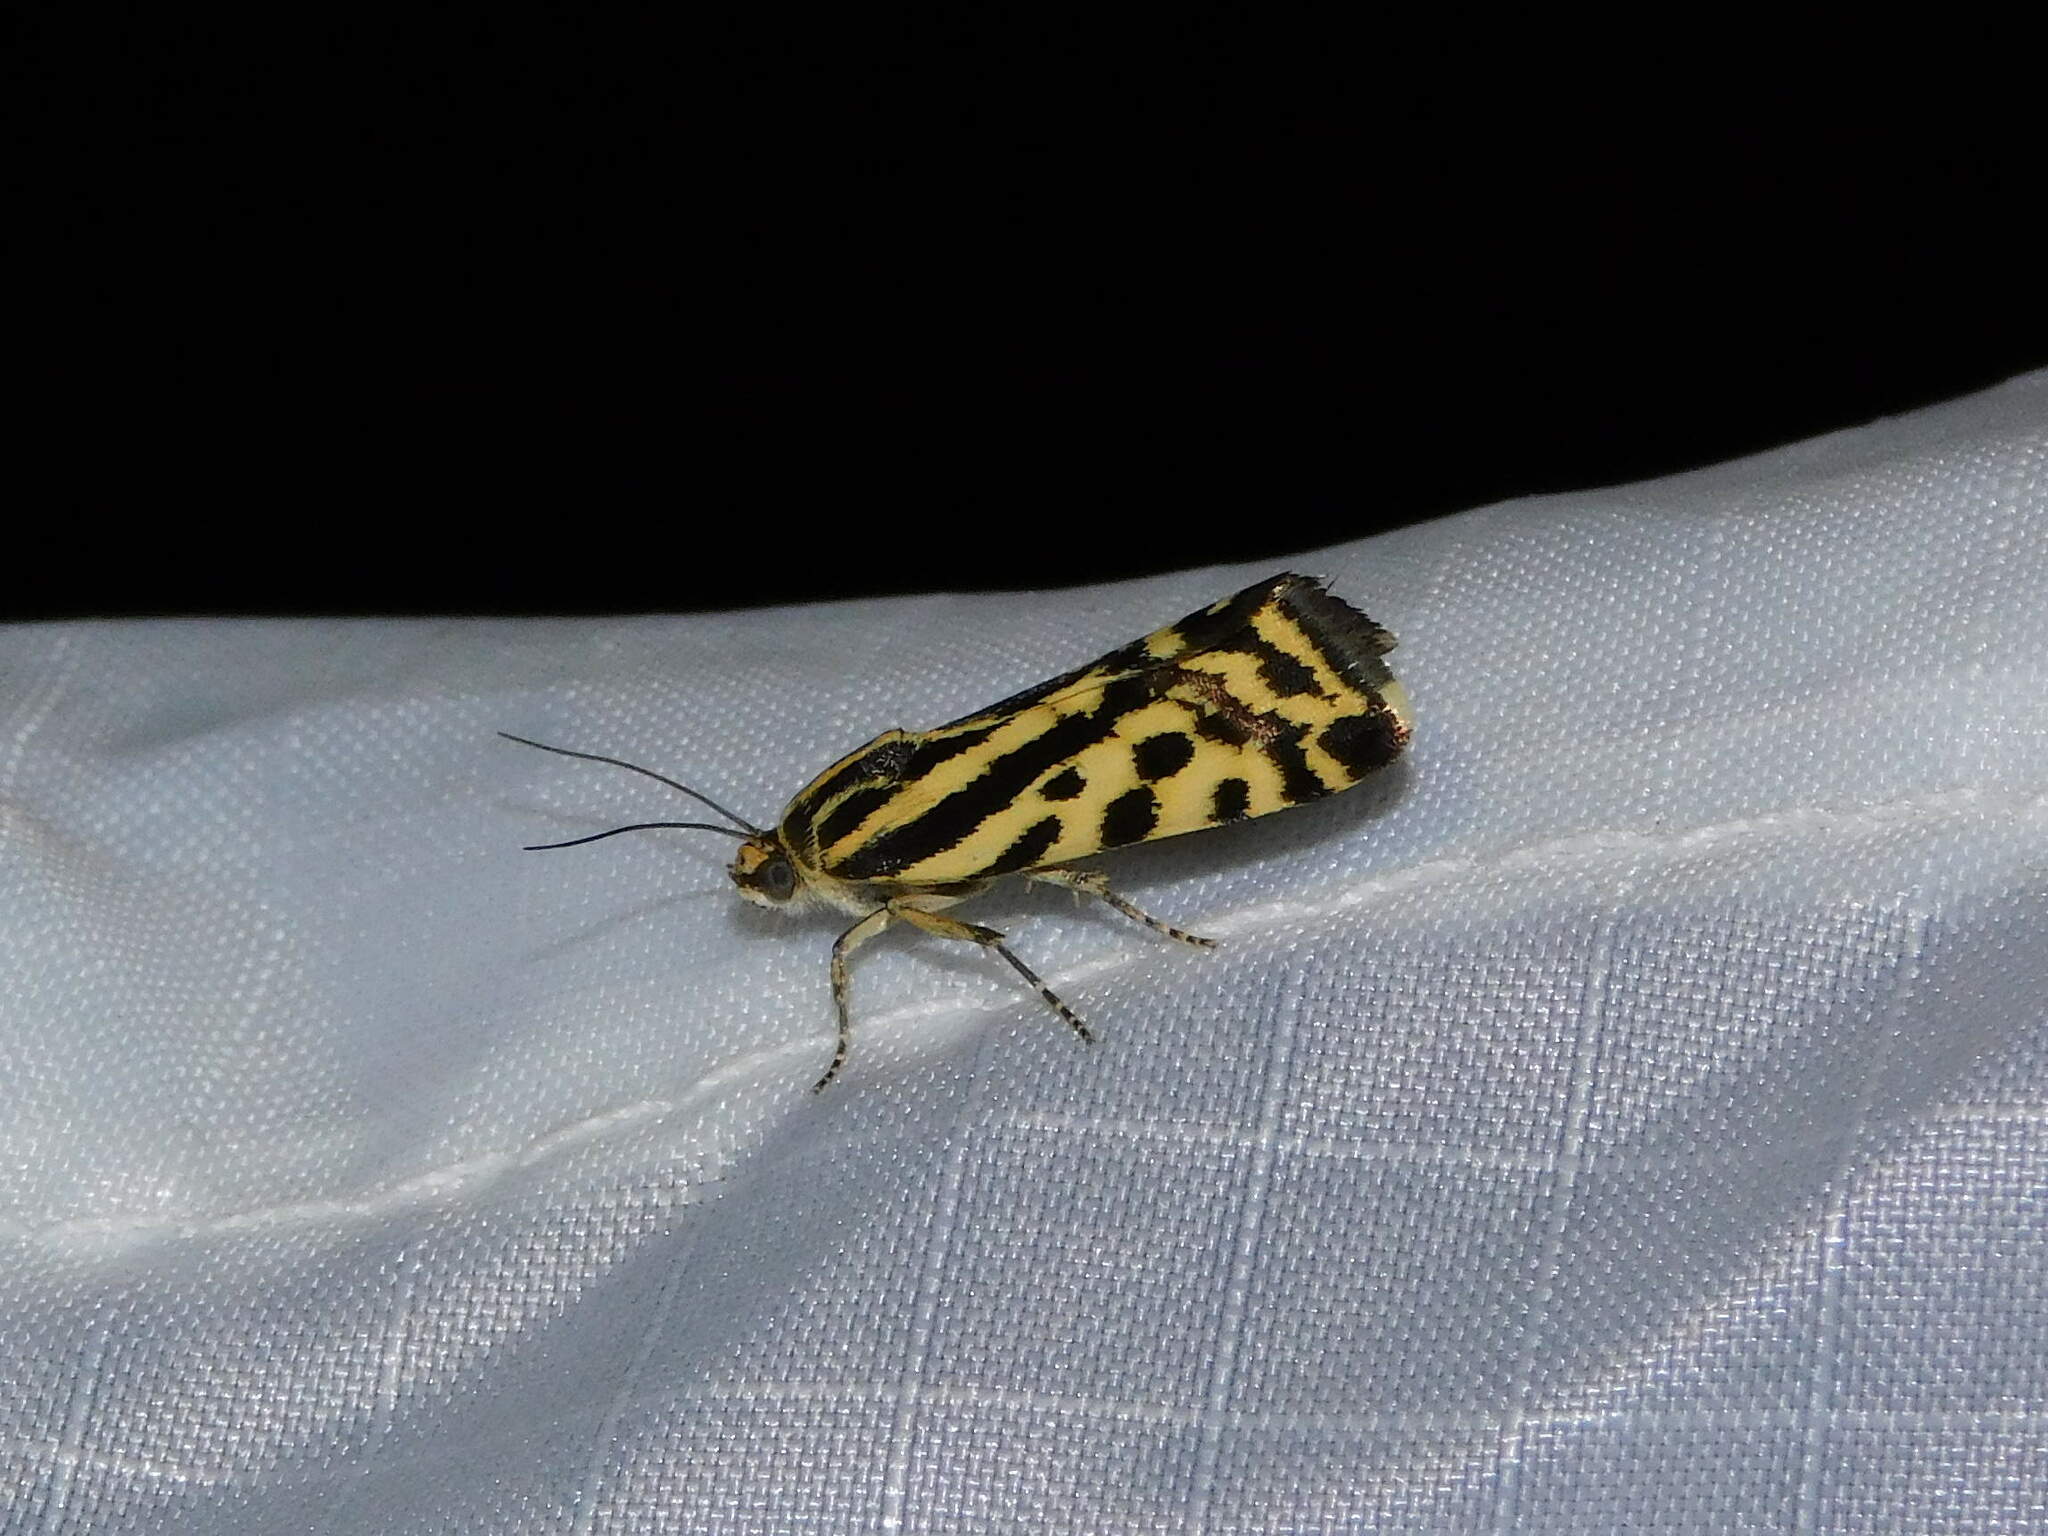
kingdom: Animalia
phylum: Arthropoda
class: Insecta
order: Lepidoptera
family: Noctuidae
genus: Acontia
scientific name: Acontia trabealis
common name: Spotted sulphur
